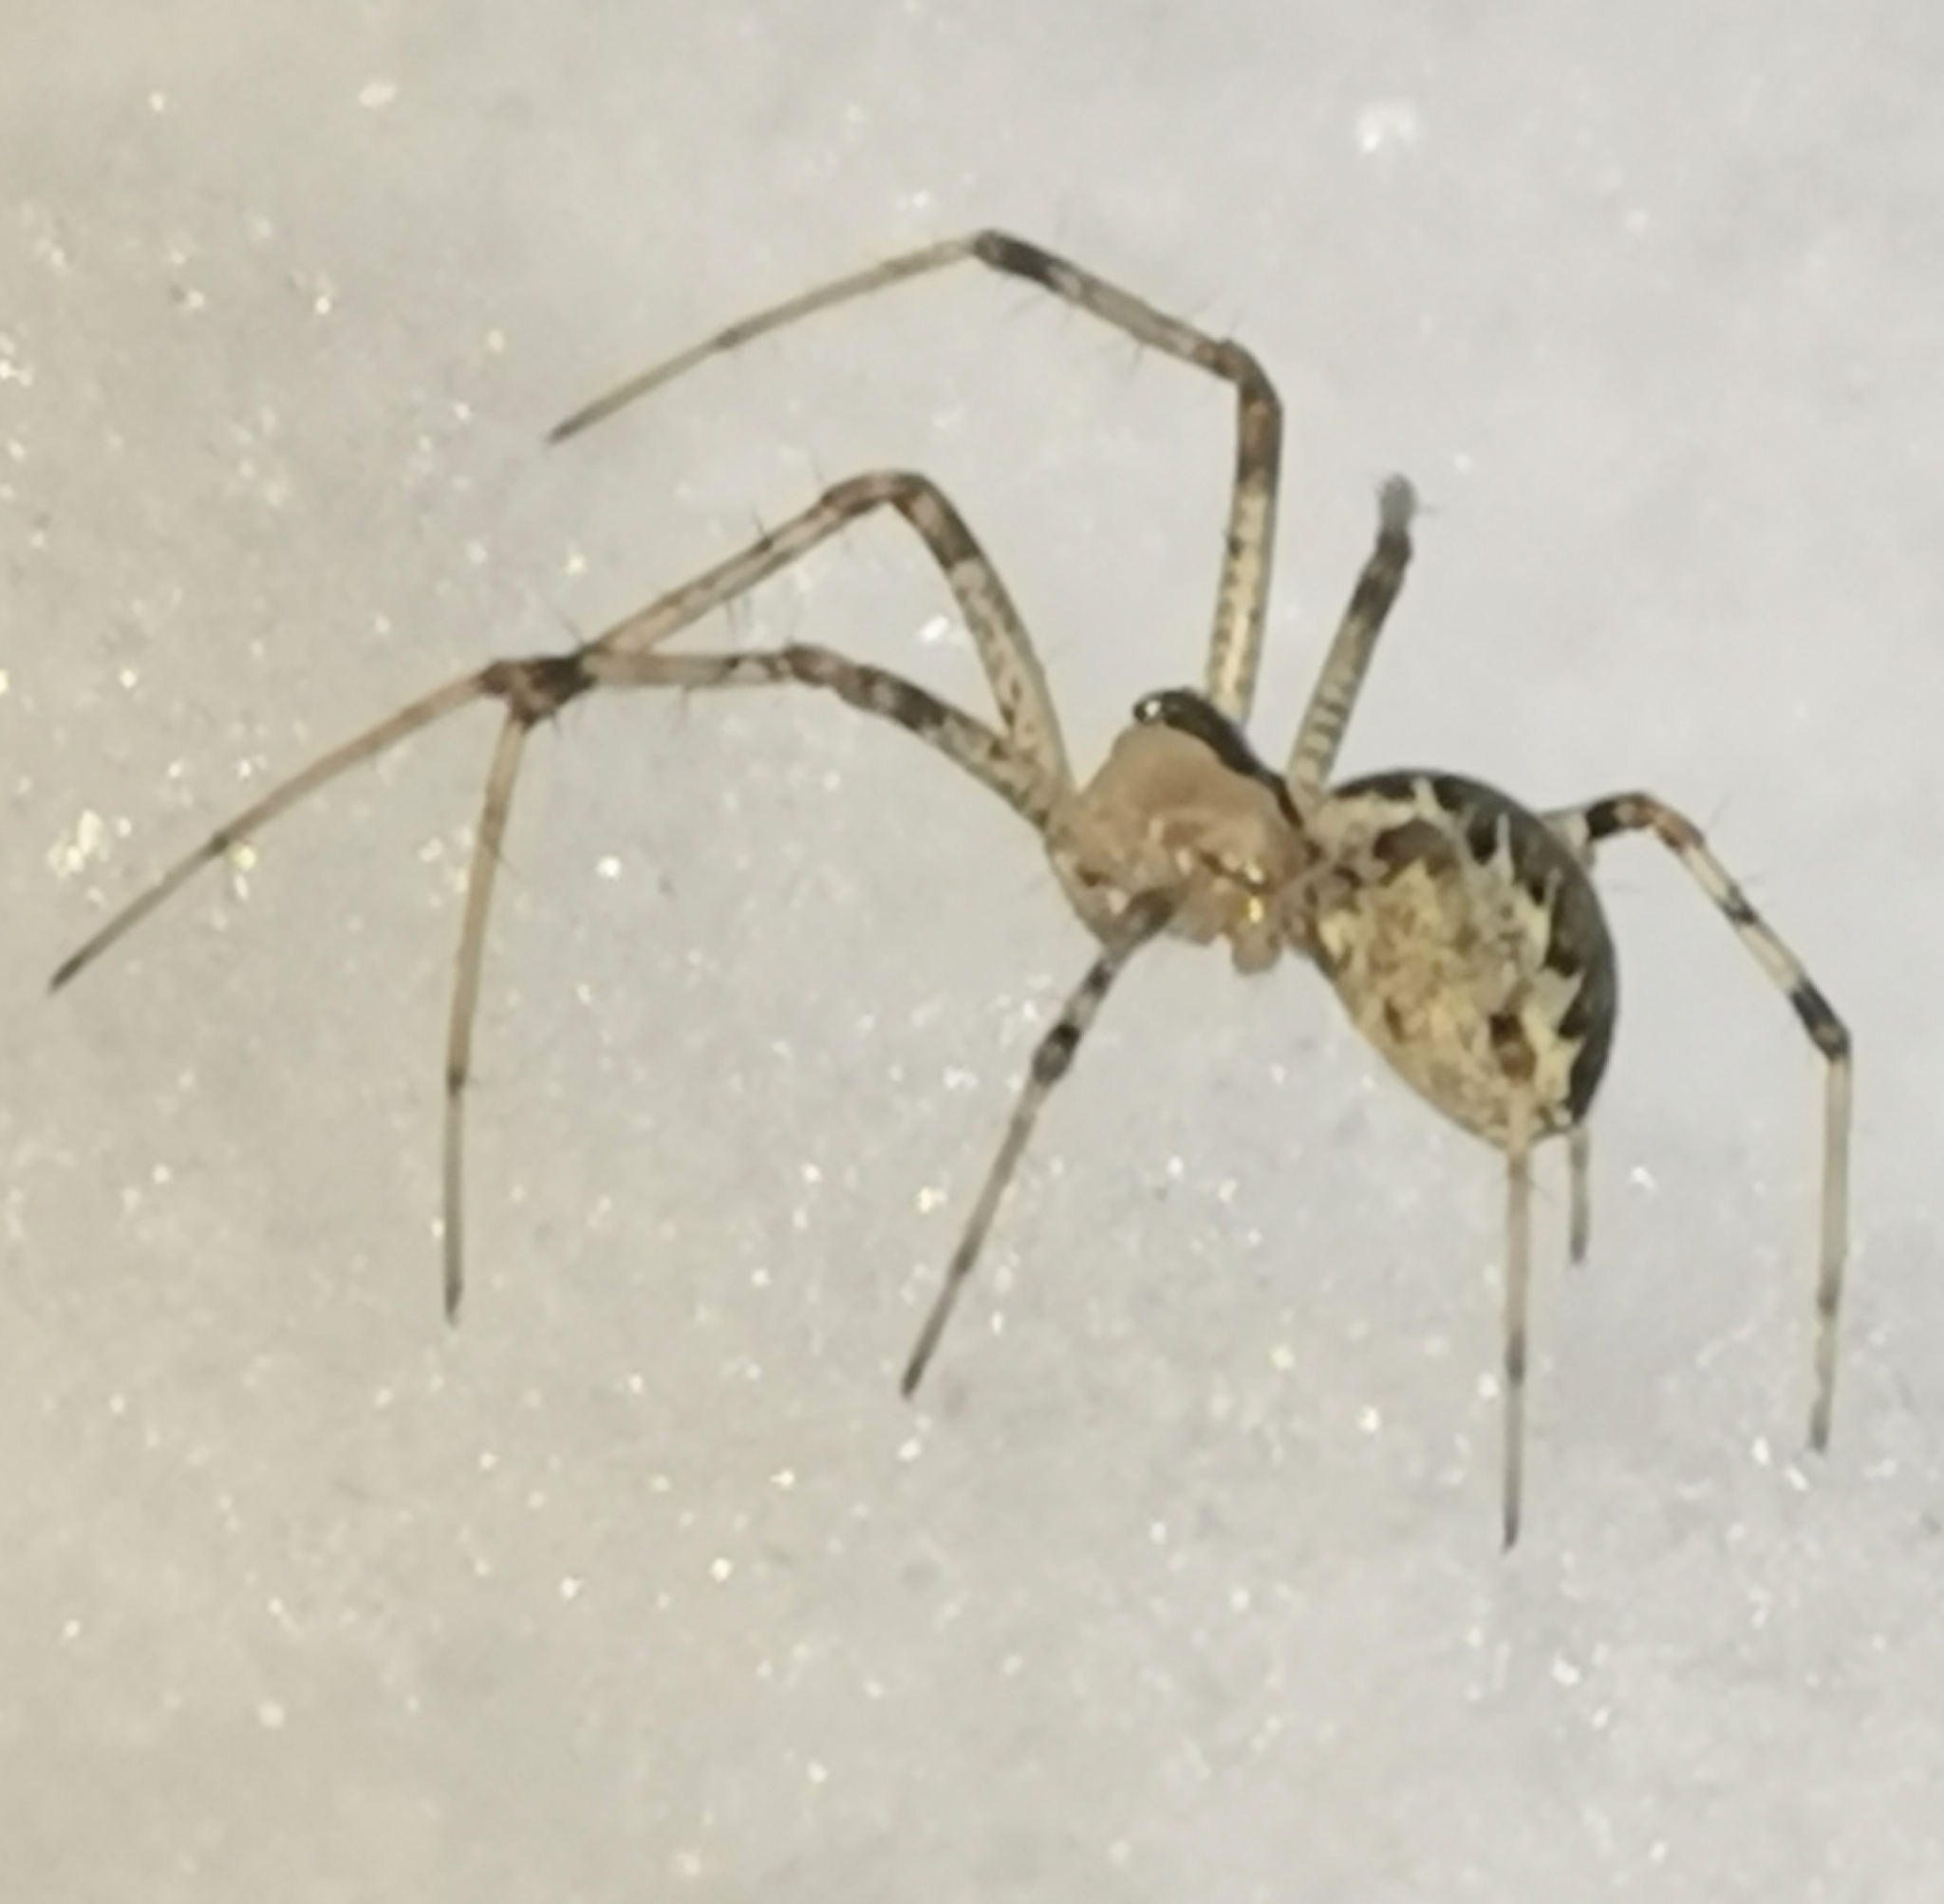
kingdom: Animalia
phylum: Arthropoda
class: Arachnida
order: Araneae
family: Linyphiidae
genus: Pityohyphantes
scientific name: Pityohyphantes phrygianus
